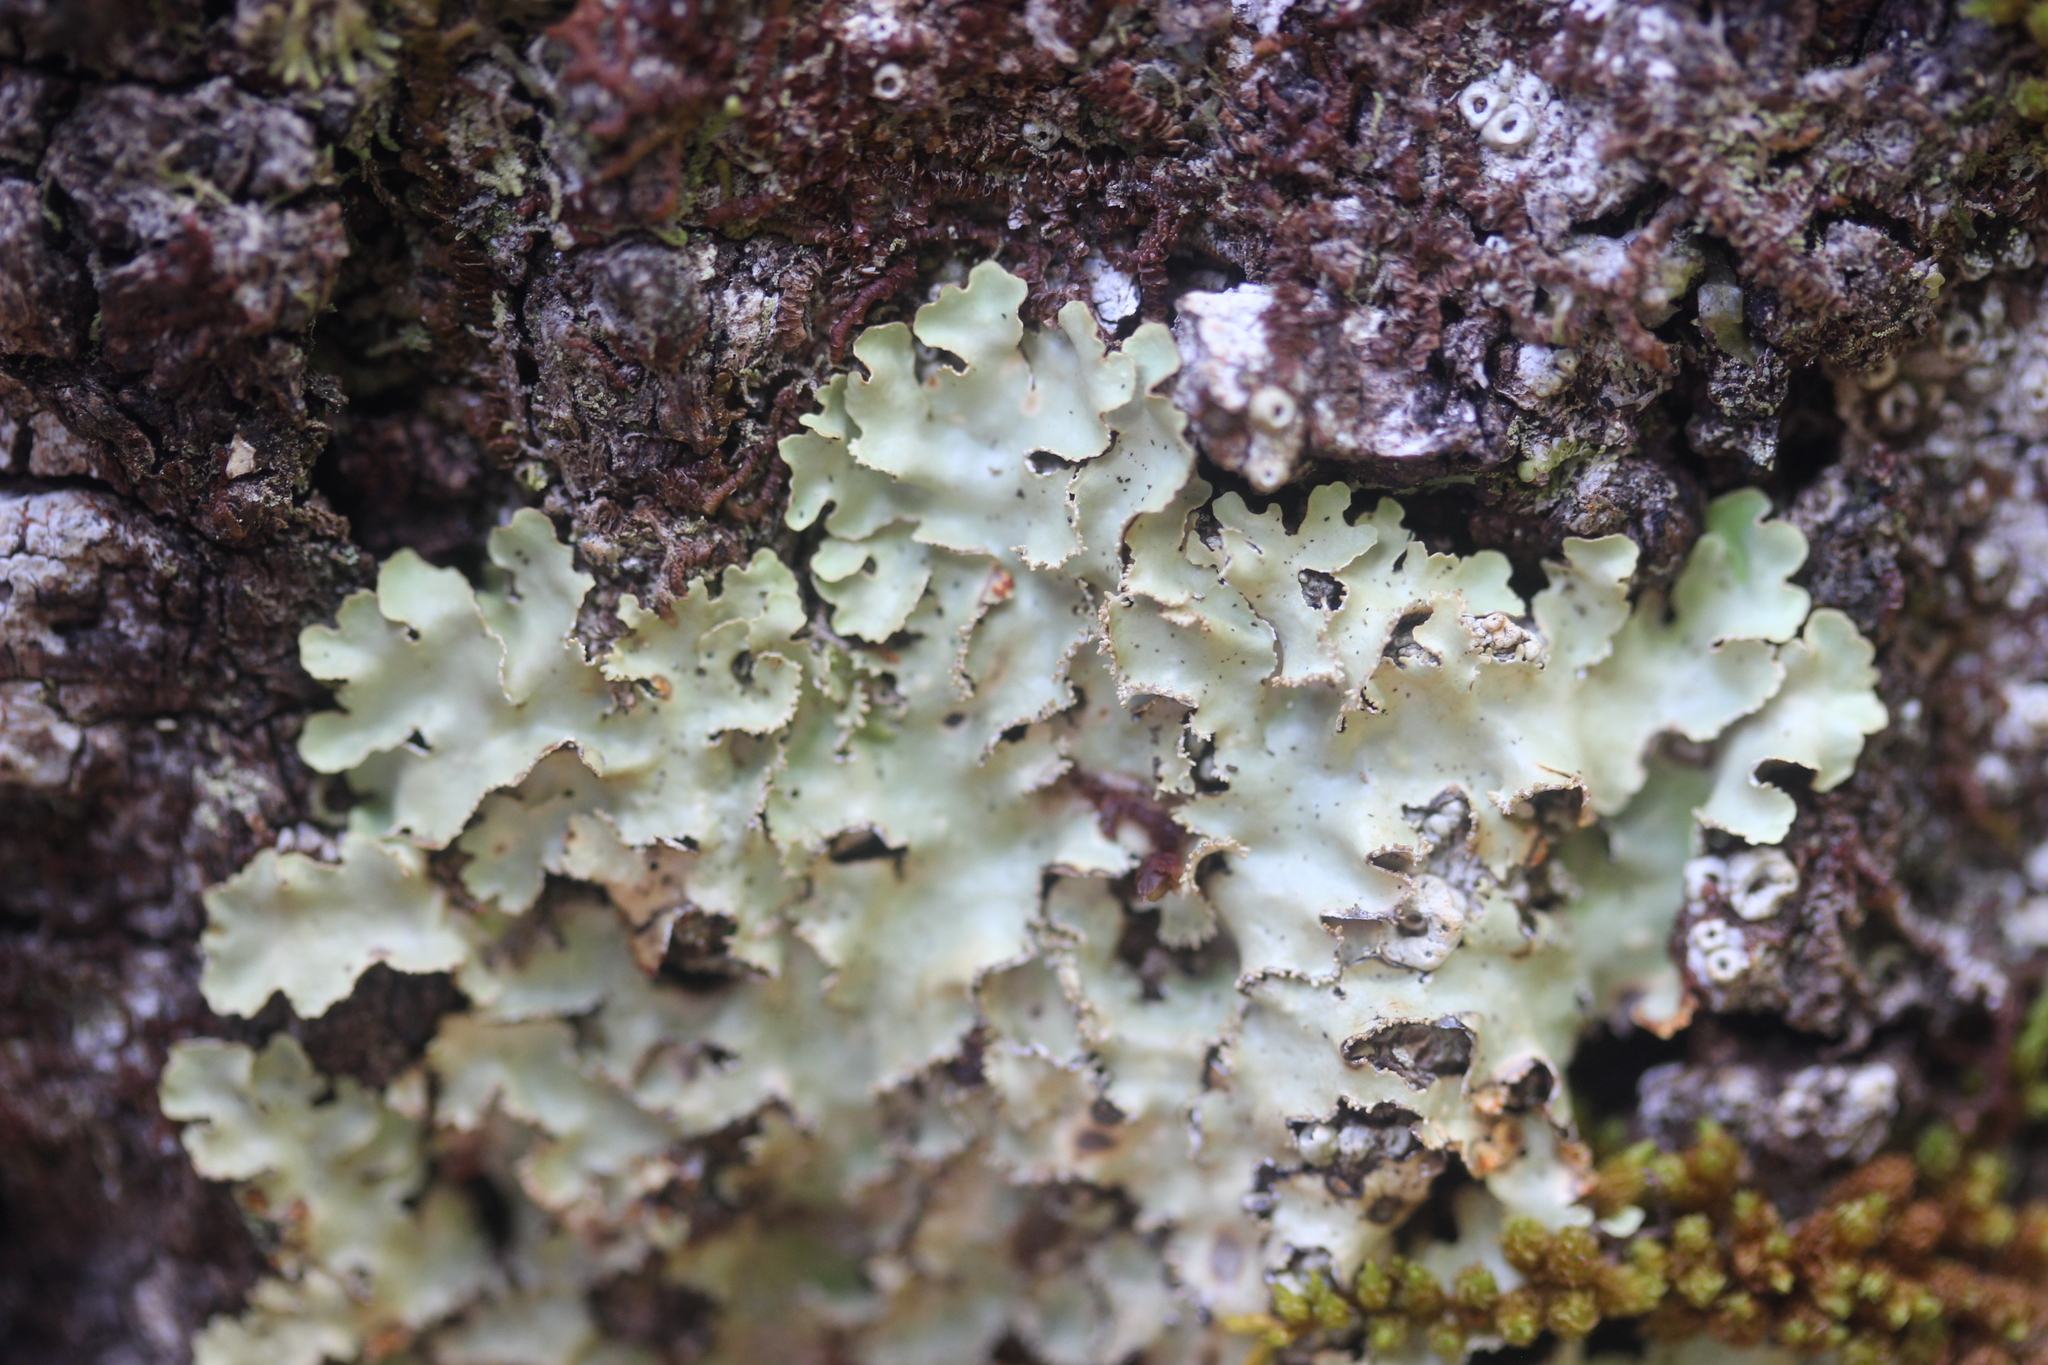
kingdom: Fungi
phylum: Ascomycota
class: Lecanoromycetes
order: Peltigerales
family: Lobariaceae
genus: Pseudocyphellaria
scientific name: Pseudocyphellaria glabra
